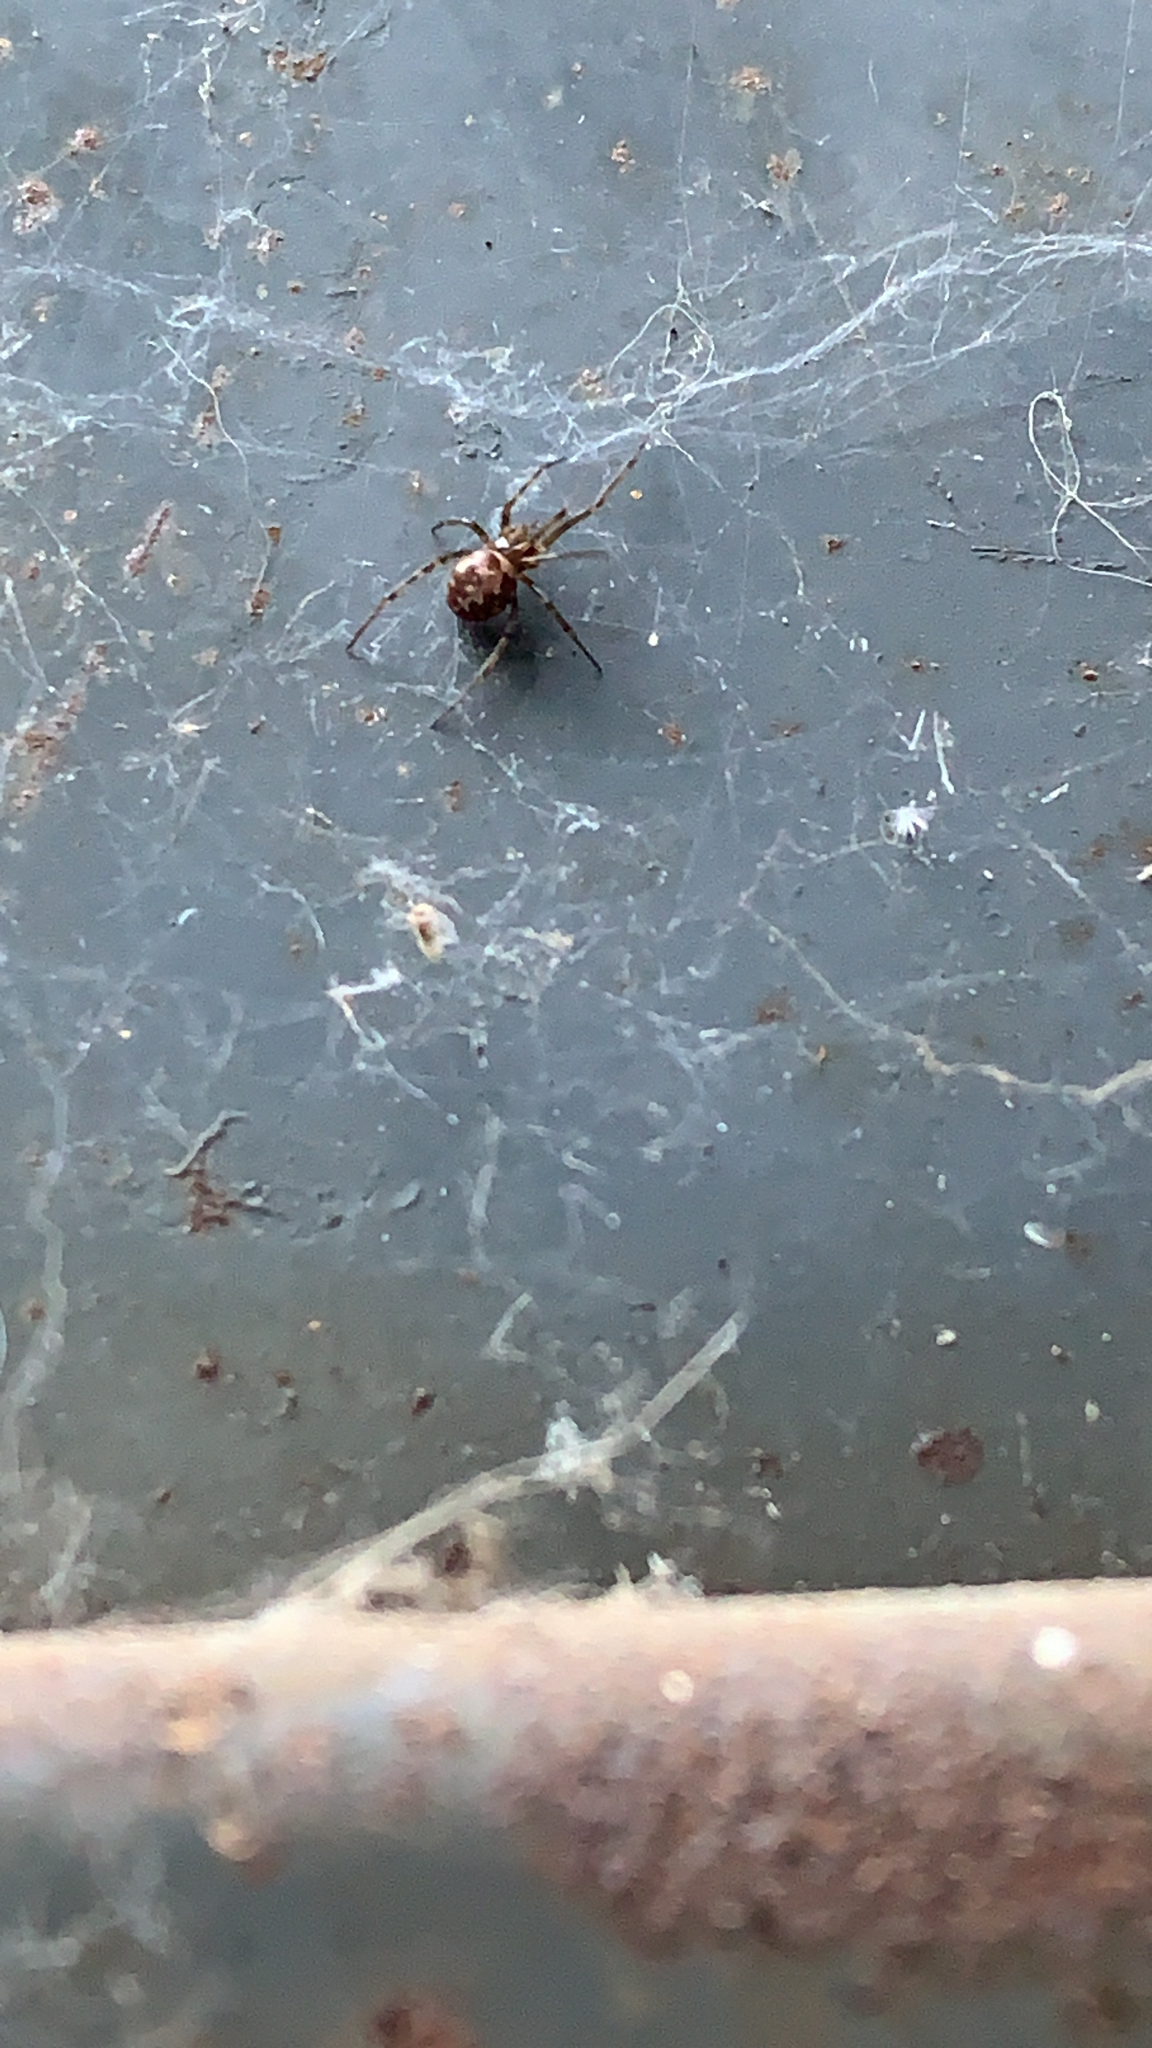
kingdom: Animalia
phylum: Arthropoda
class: Arachnida
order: Araneae
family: Theridiidae
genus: Steatoda
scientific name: Steatoda triangulosa
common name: Triangulate bud spider
